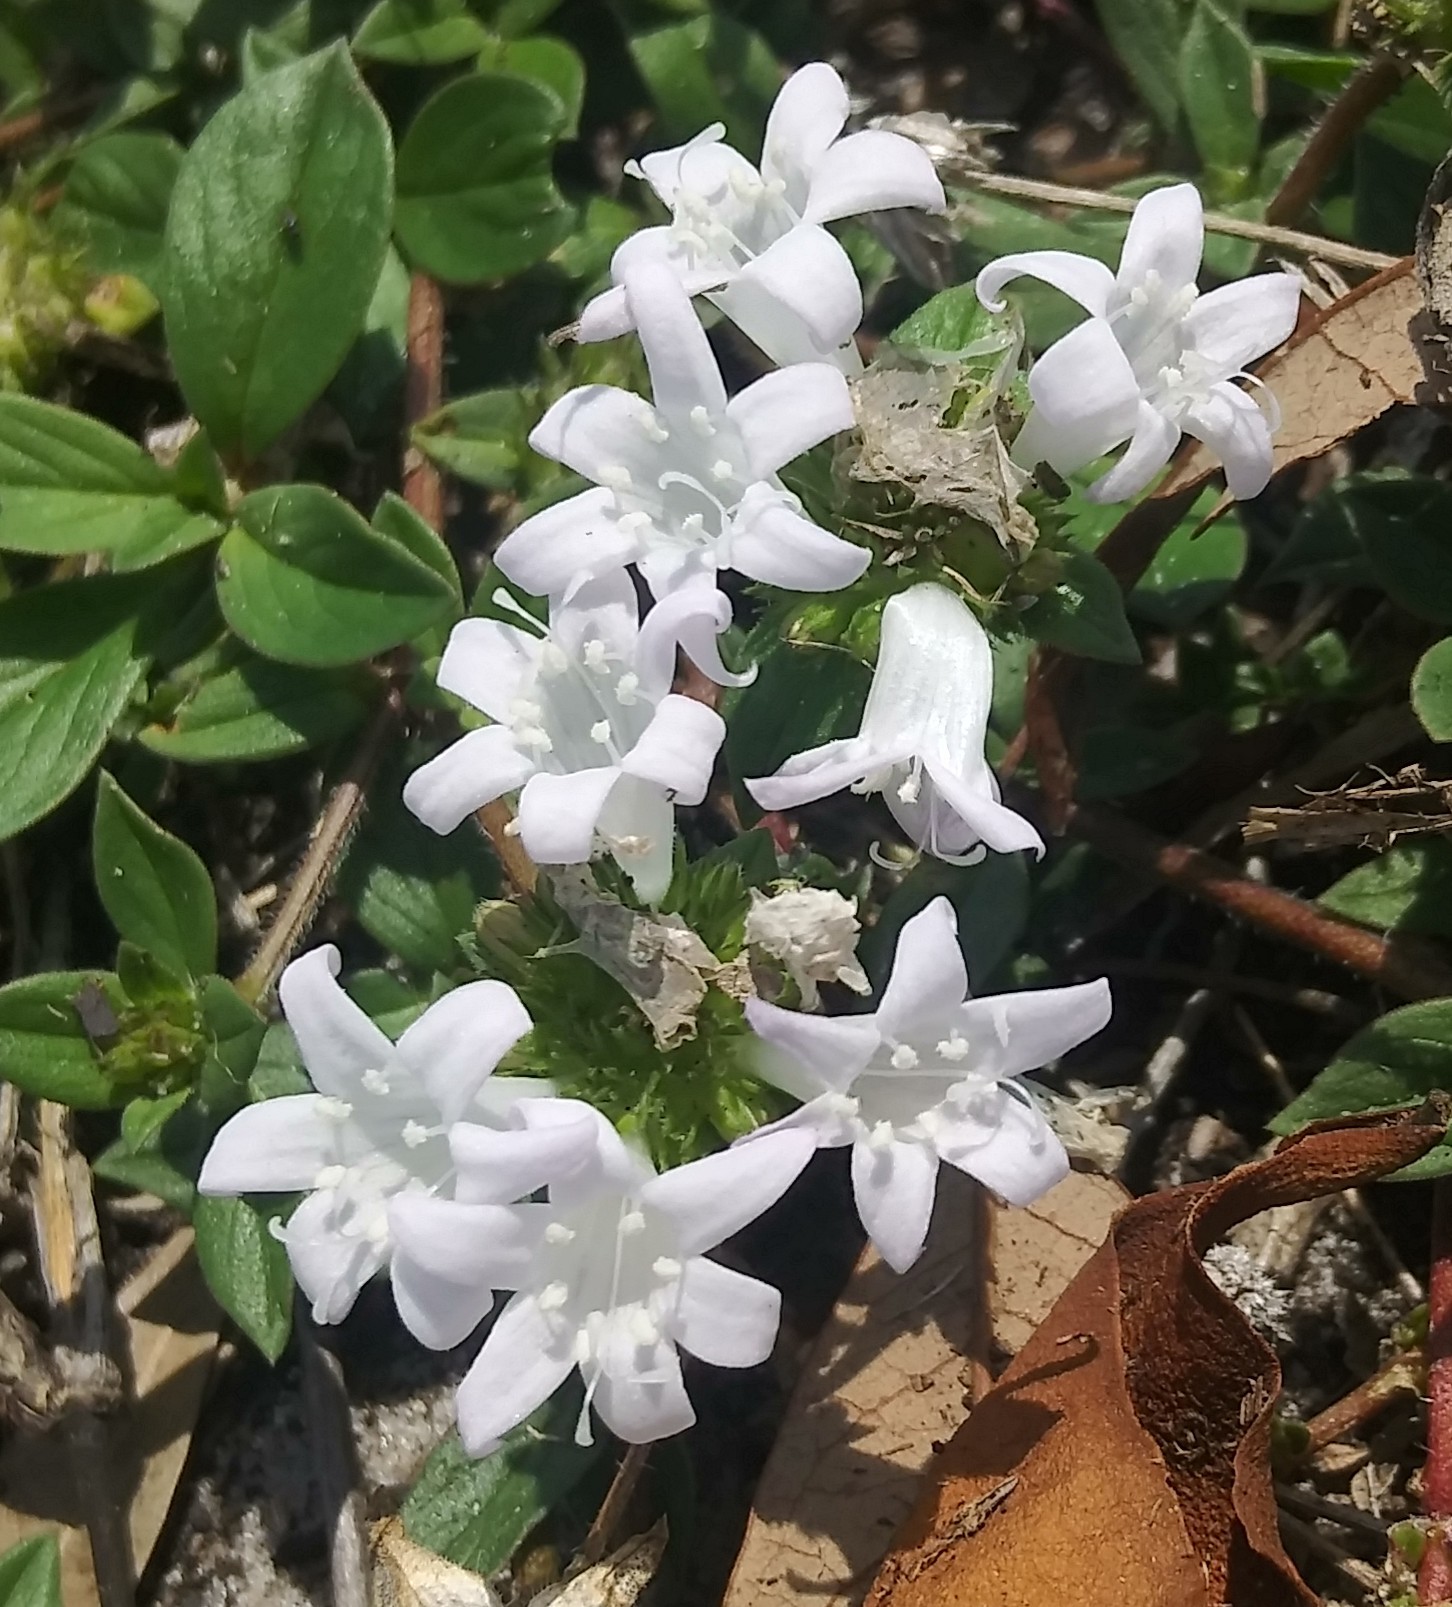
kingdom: Plantae
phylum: Tracheophyta
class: Magnoliopsida
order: Gentianales
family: Rubiaceae
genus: Richardia
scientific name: Richardia grandiflora
